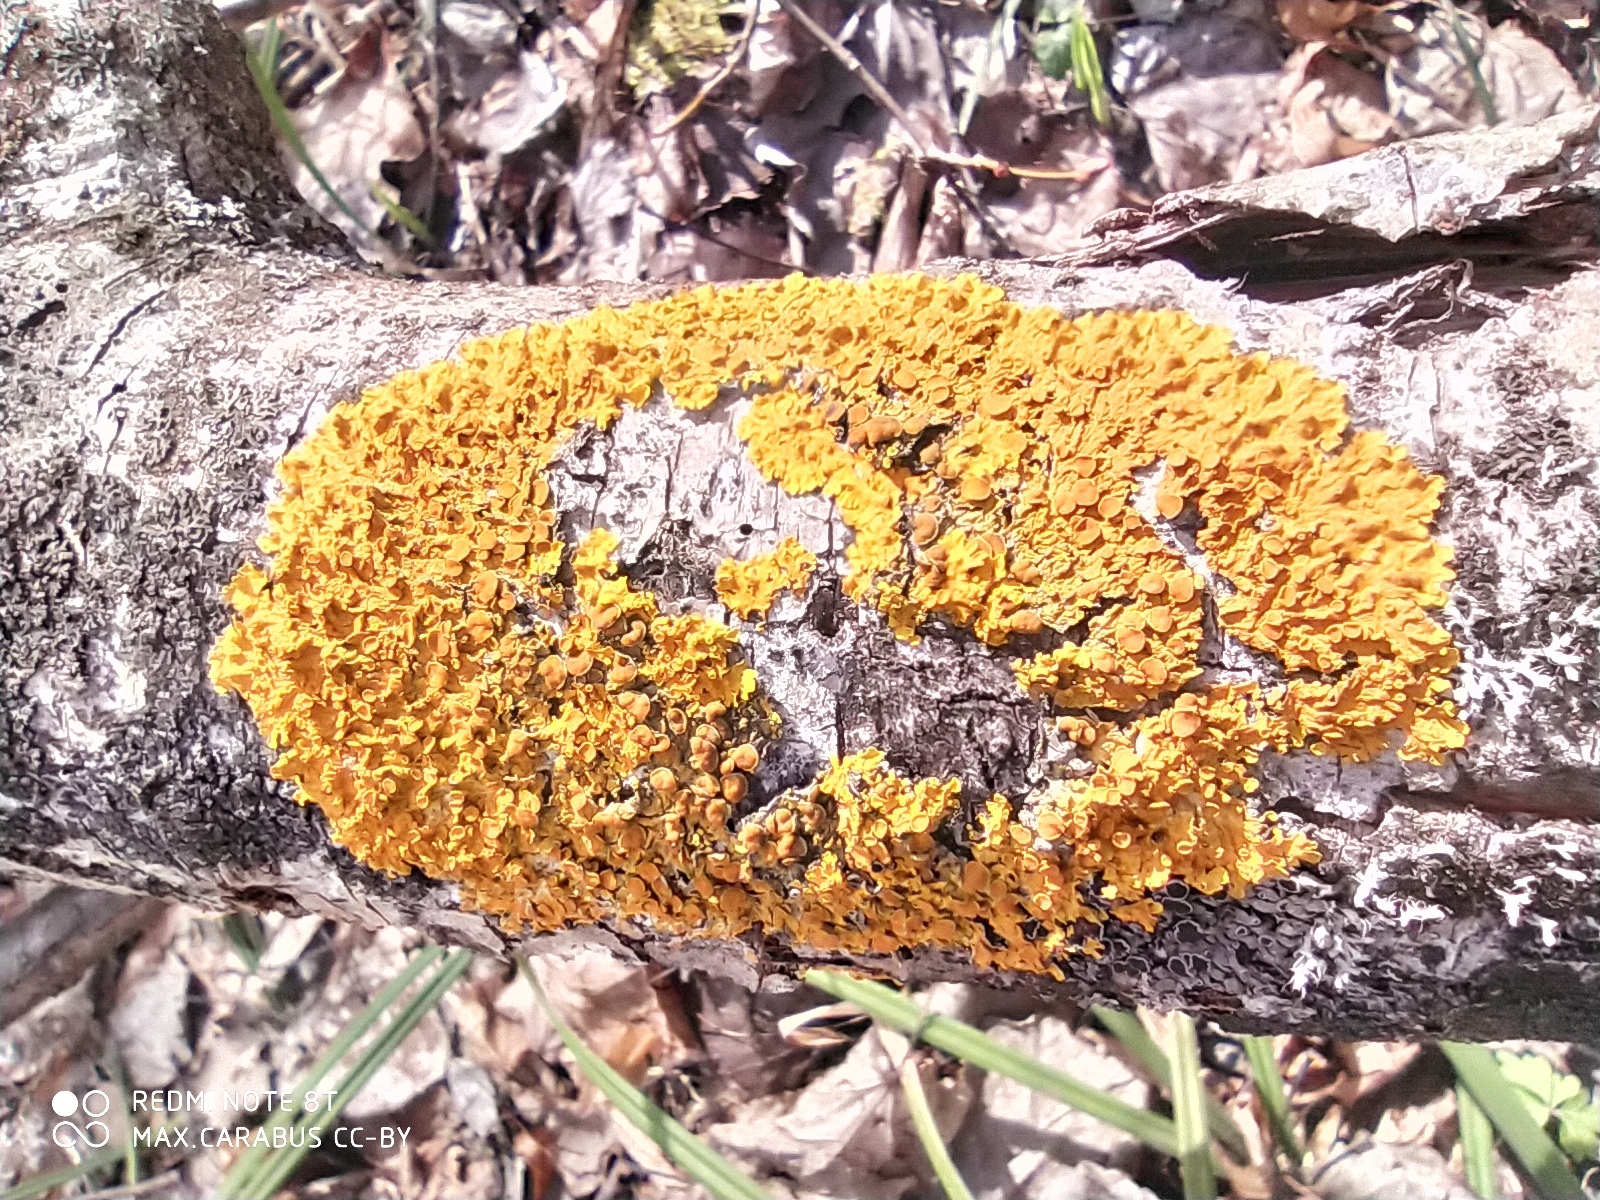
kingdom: Fungi
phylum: Ascomycota
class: Lecanoromycetes
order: Teloschistales
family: Teloschistaceae
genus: Xanthoria
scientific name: Xanthoria parietina
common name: Common orange lichen
